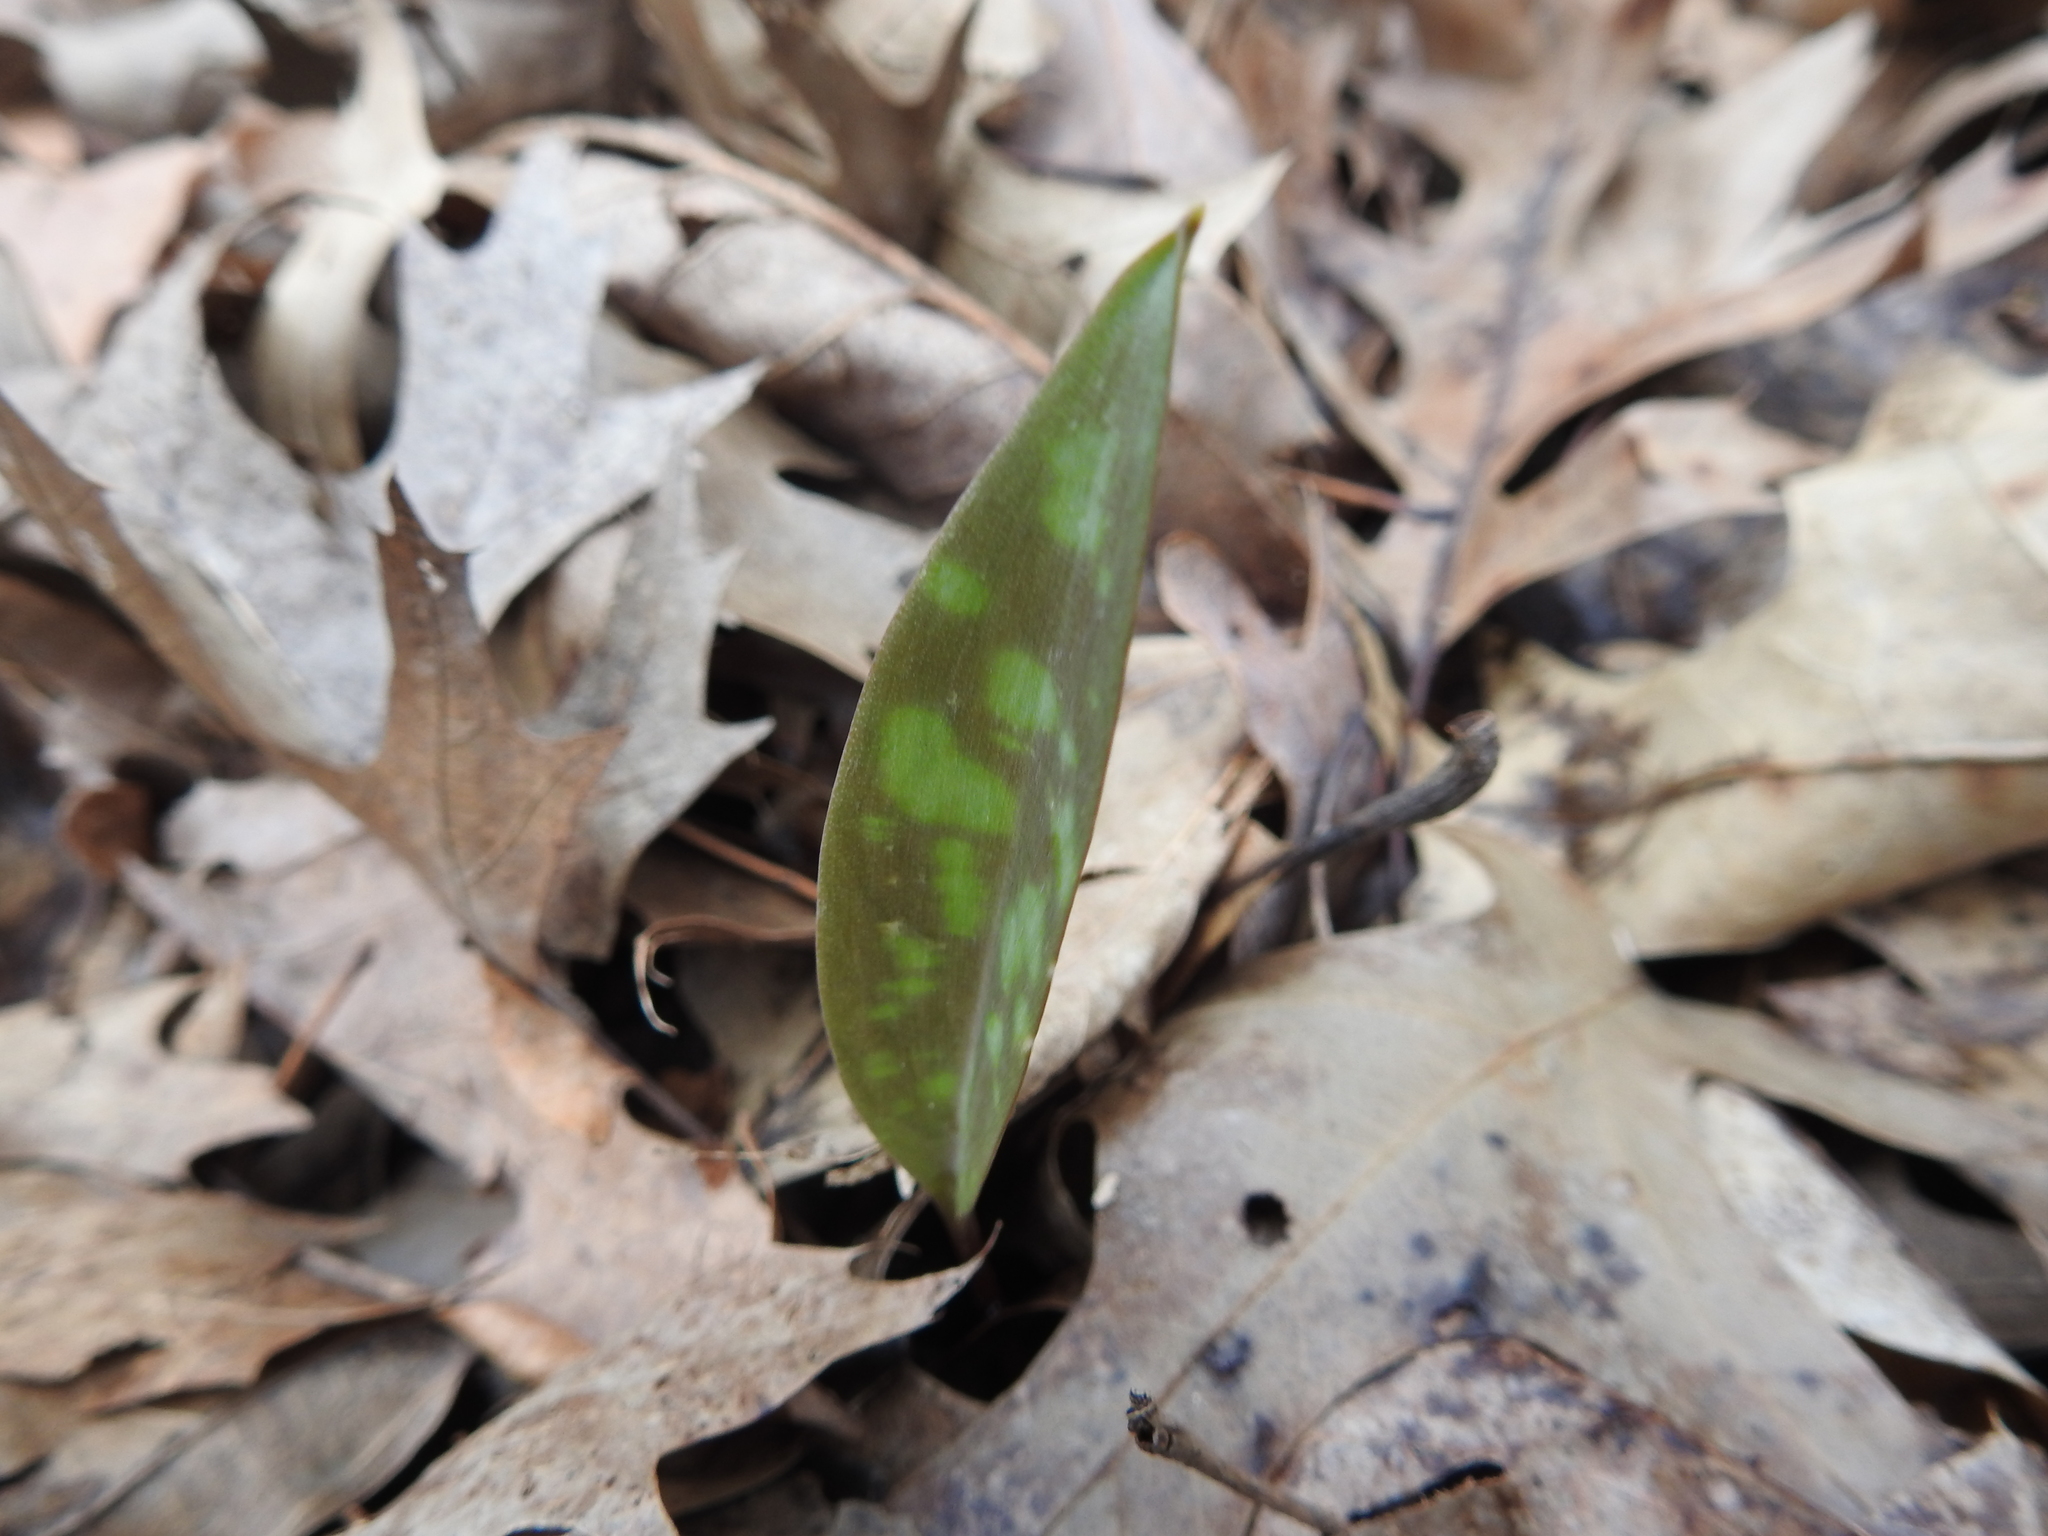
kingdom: Plantae
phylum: Tracheophyta
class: Liliopsida
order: Liliales
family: Liliaceae
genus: Erythronium
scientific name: Erythronium americanum
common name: Yellow adder's-tongue
